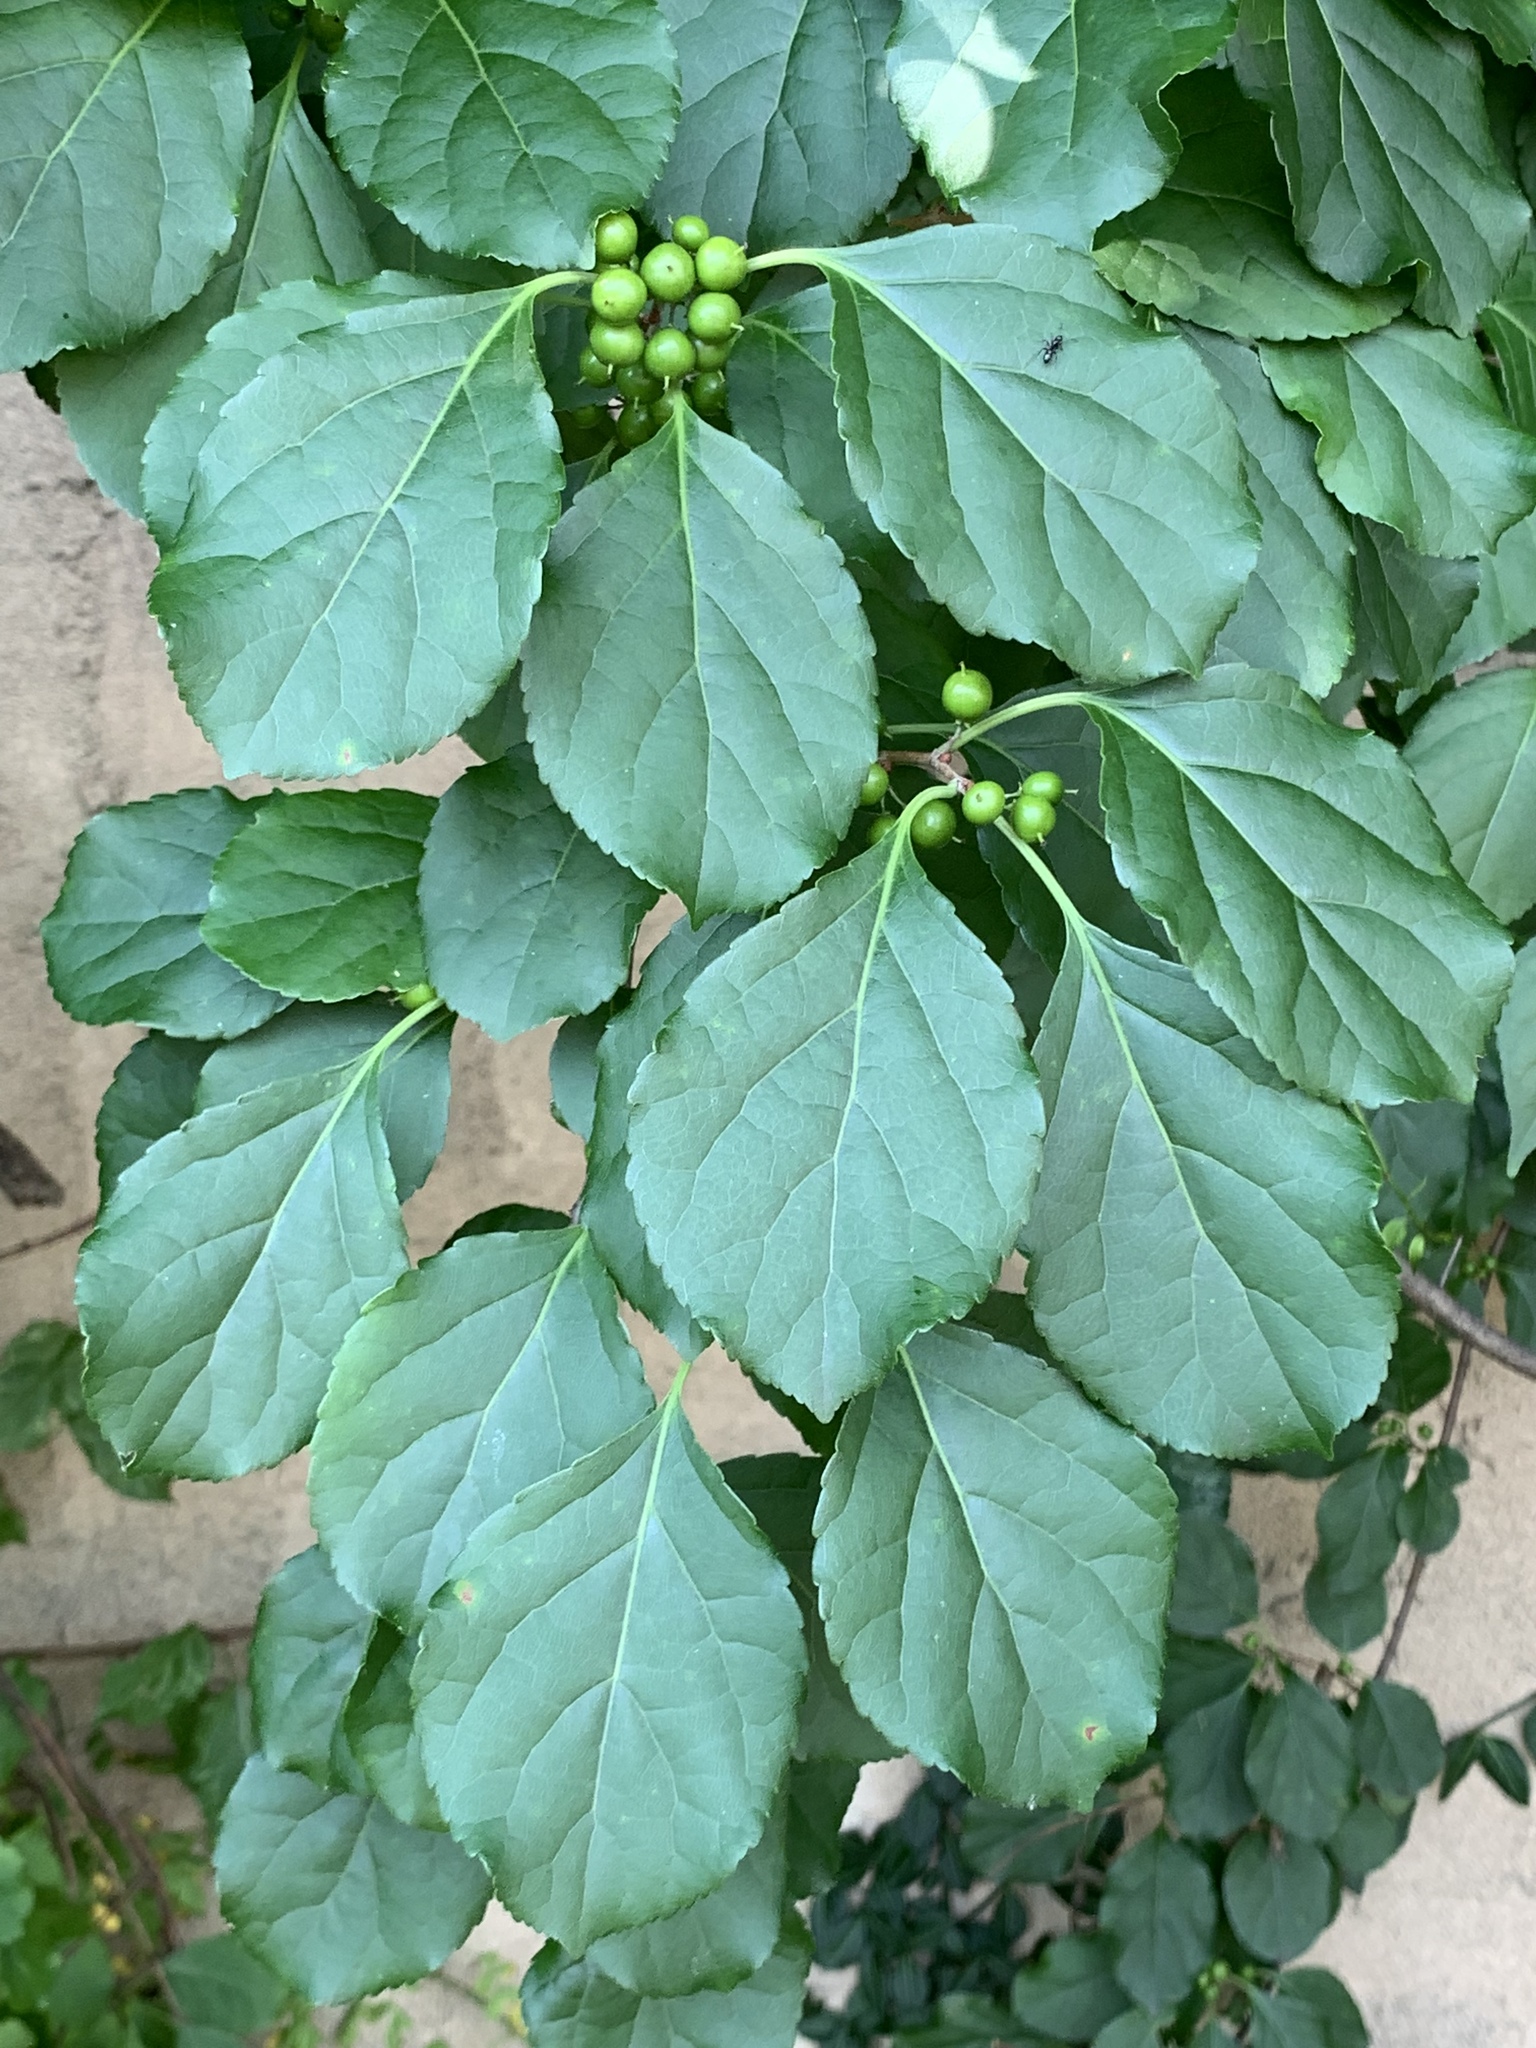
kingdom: Plantae
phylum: Tracheophyta
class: Magnoliopsida
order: Celastrales
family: Celastraceae
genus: Celastrus
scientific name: Celastrus orbiculatus
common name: Oriental bittersweet
